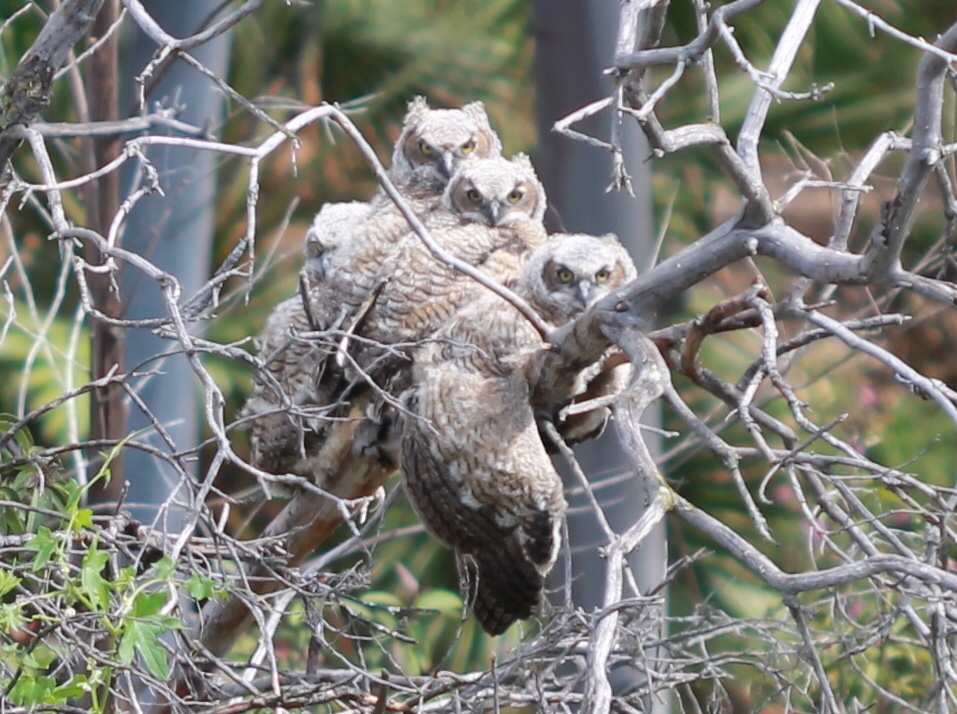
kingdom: Animalia
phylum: Chordata
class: Aves
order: Strigiformes
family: Strigidae
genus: Bubo
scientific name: Bubo virginianus
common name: Great horned owl
